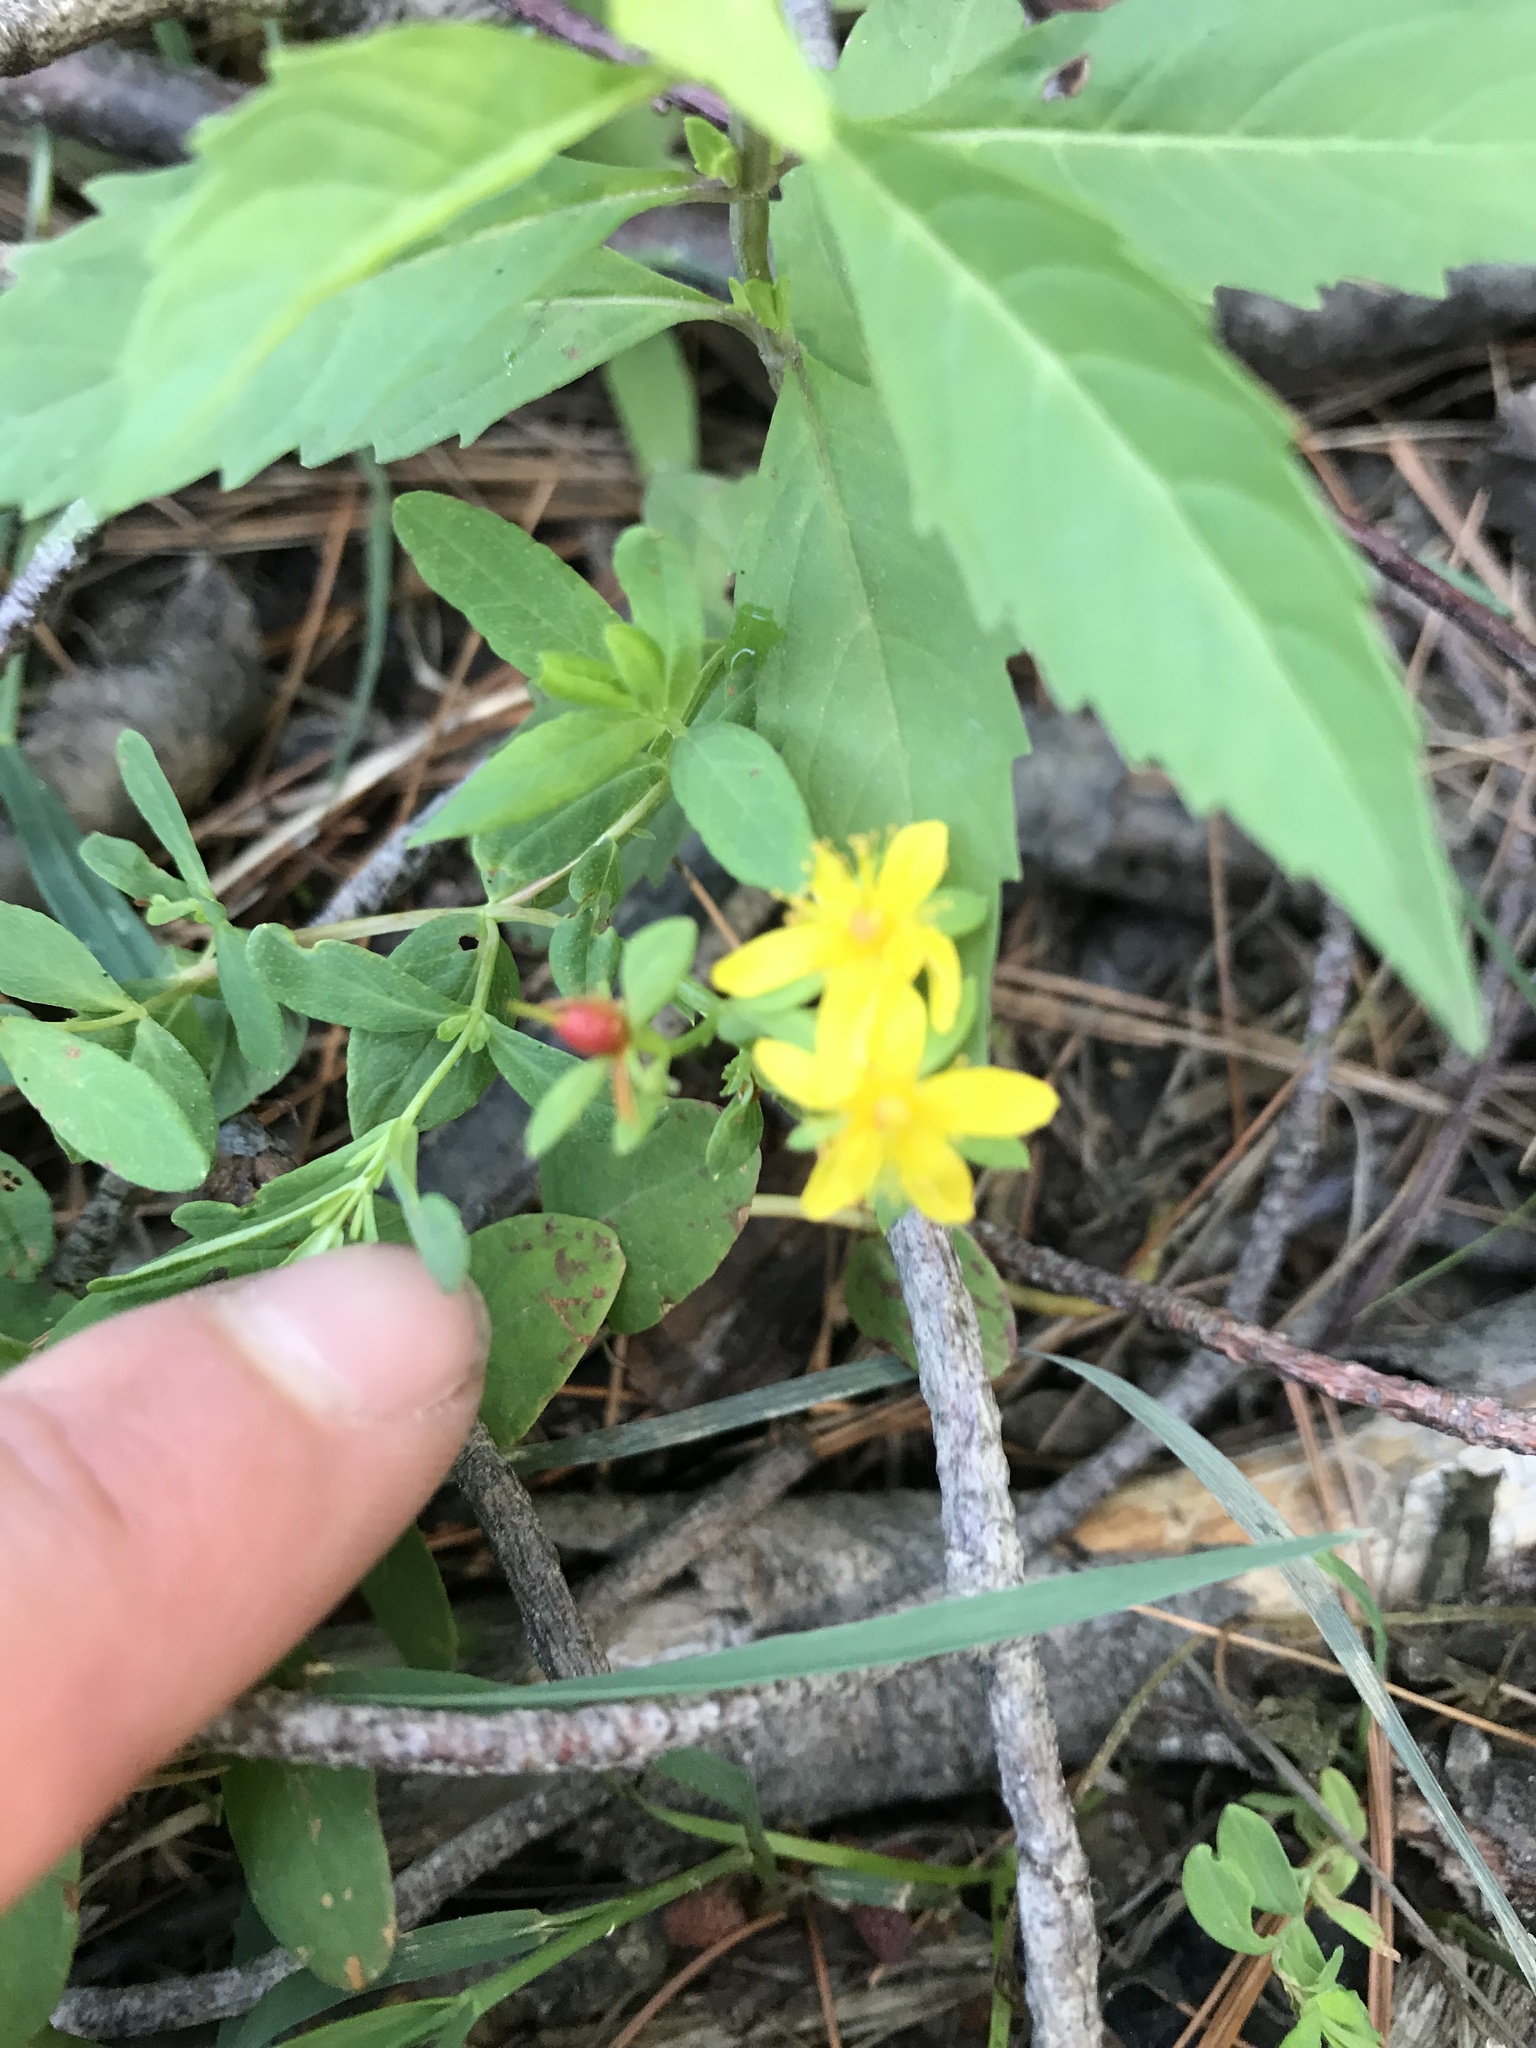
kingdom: Plantae
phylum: Tracheophyta
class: Magnoliopsida
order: Malpighiales
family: Hypericaceae
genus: Hypericum
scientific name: Hypericum ellipticum
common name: Elliptic st. john's-wort
